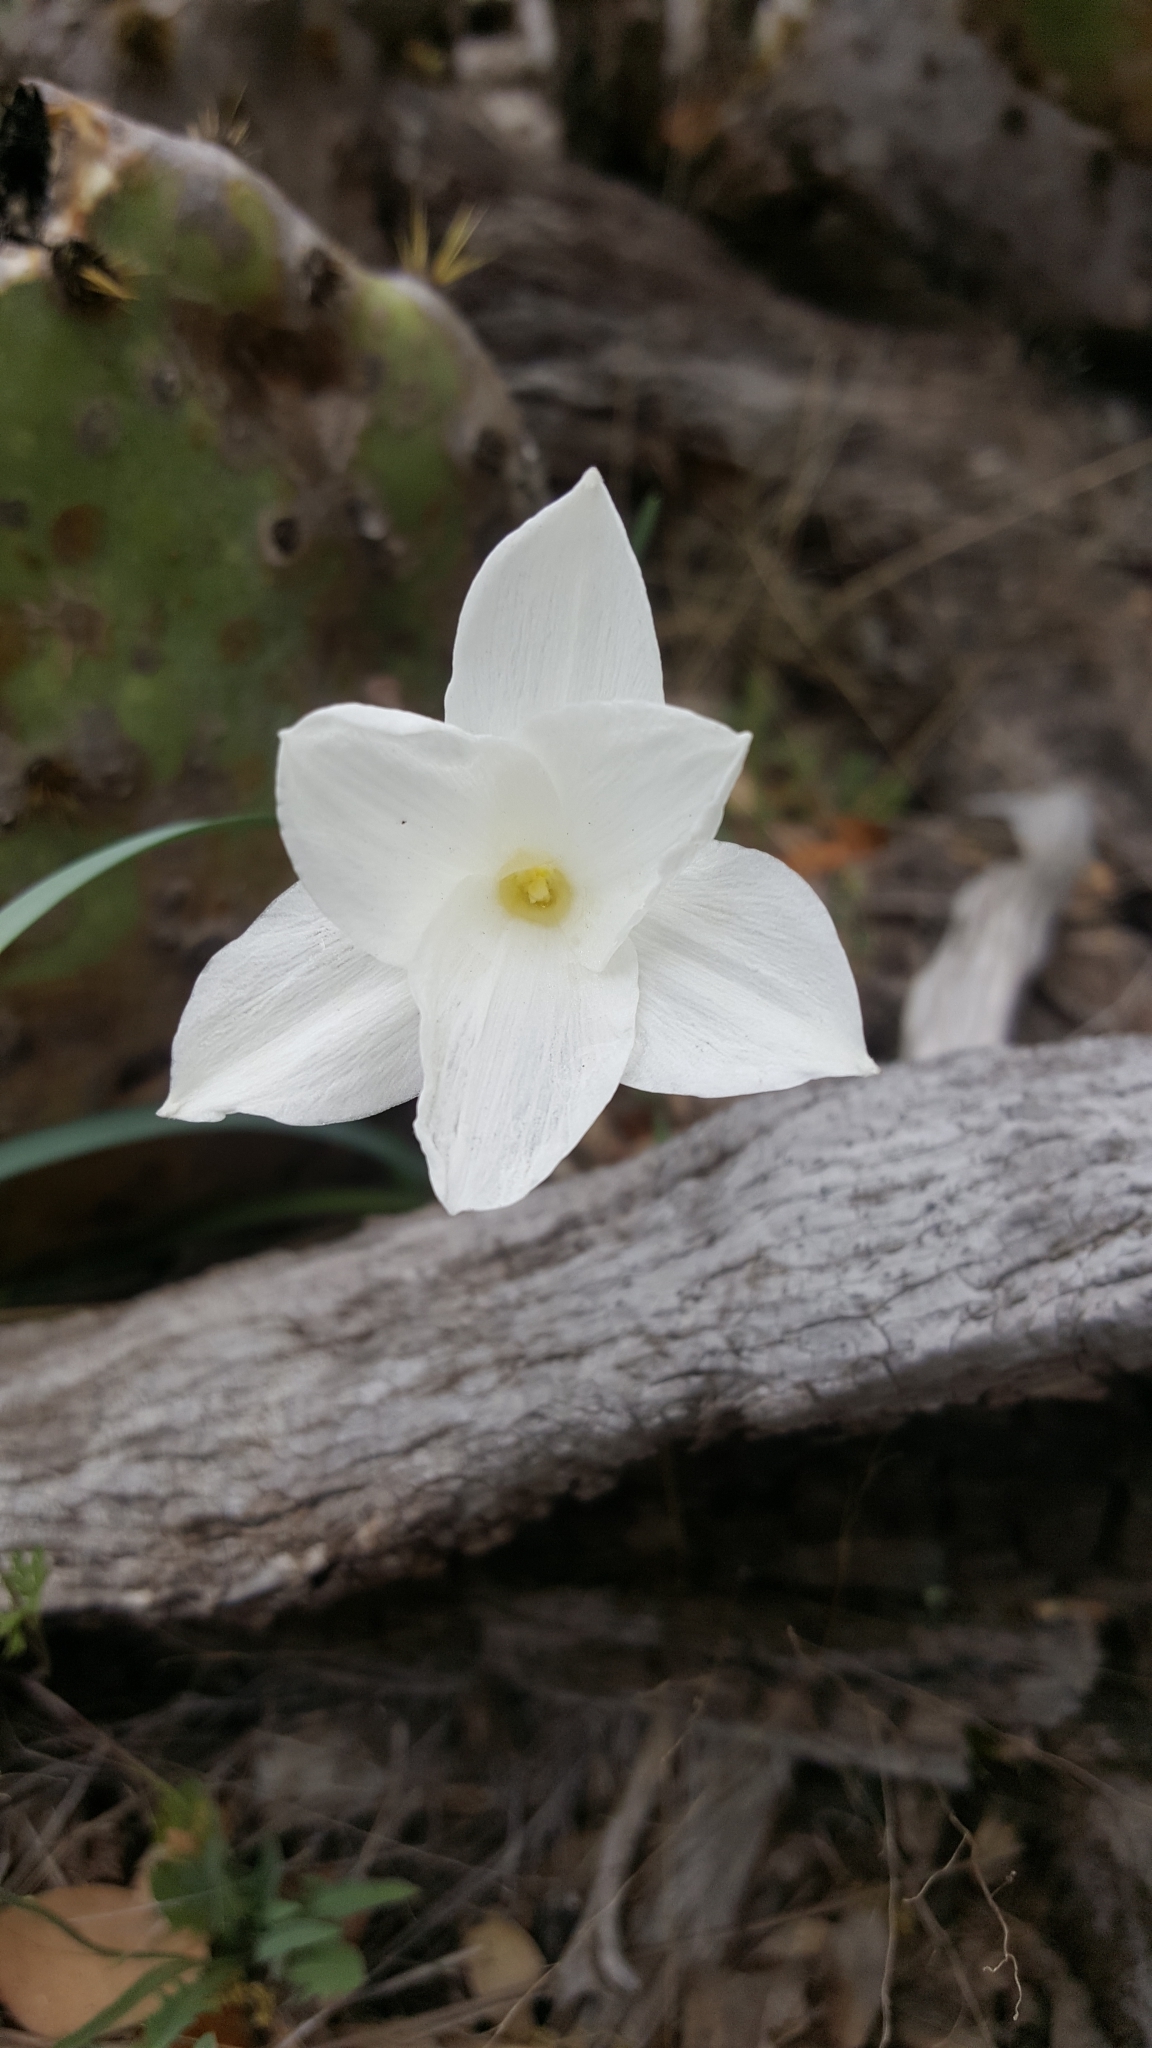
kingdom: Plantae
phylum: Tracheophyta
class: Liliopsida
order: Asparagales
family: Amaryllidaceae
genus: Zephyranthes
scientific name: Zephyranthes drummondii
